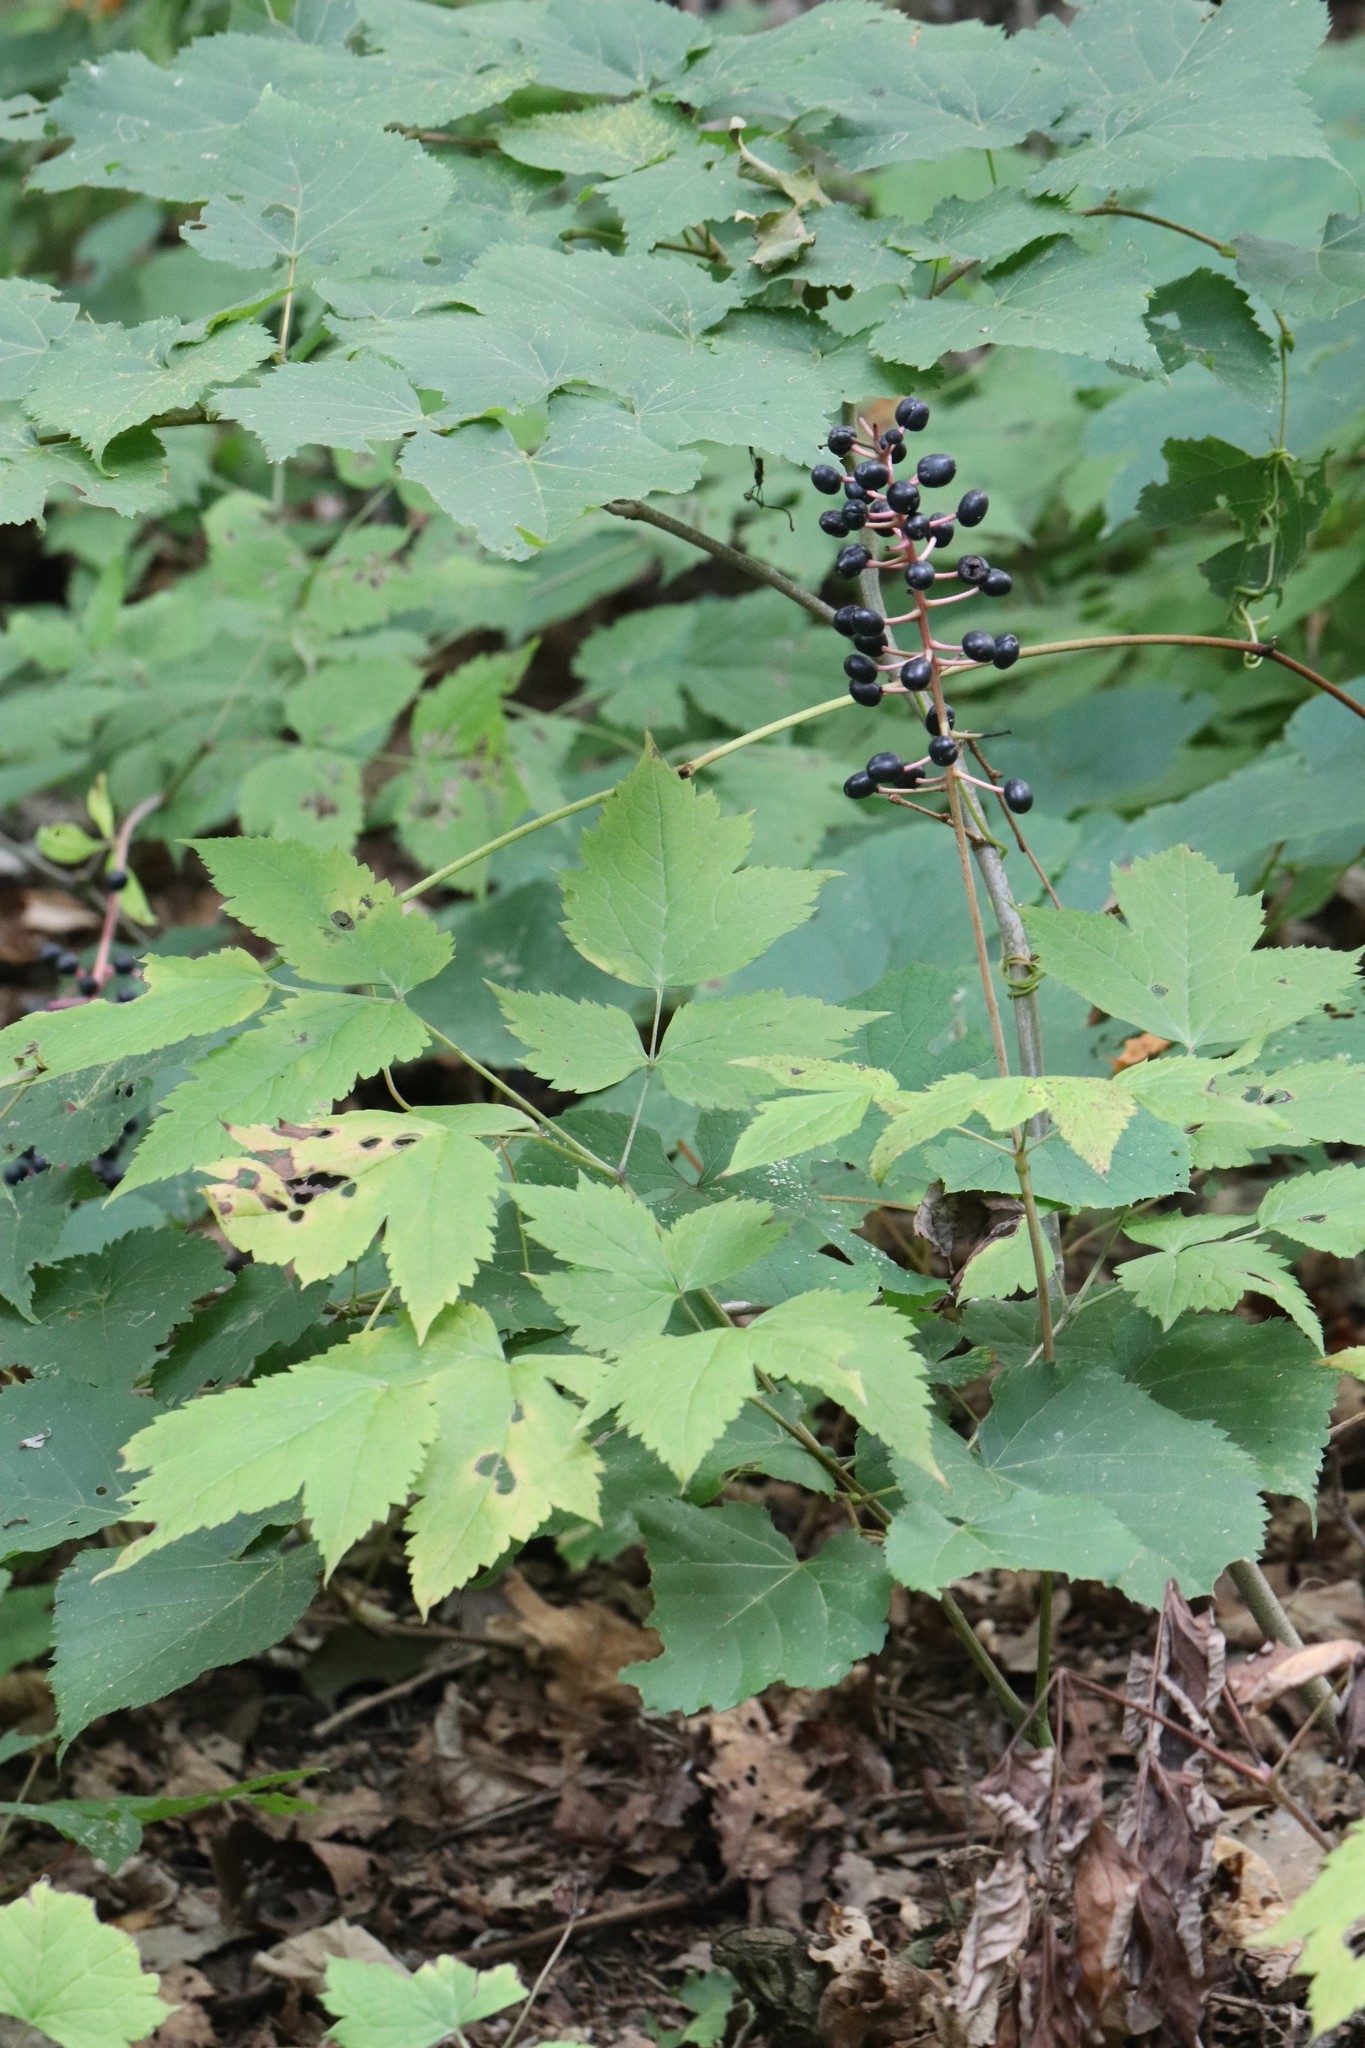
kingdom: Plantae
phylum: Tracheophyta
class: Magnoliopsida
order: Ranunculales
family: Ranunculaceae
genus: Actaea
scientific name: Actaea spicata
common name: Baneberry
